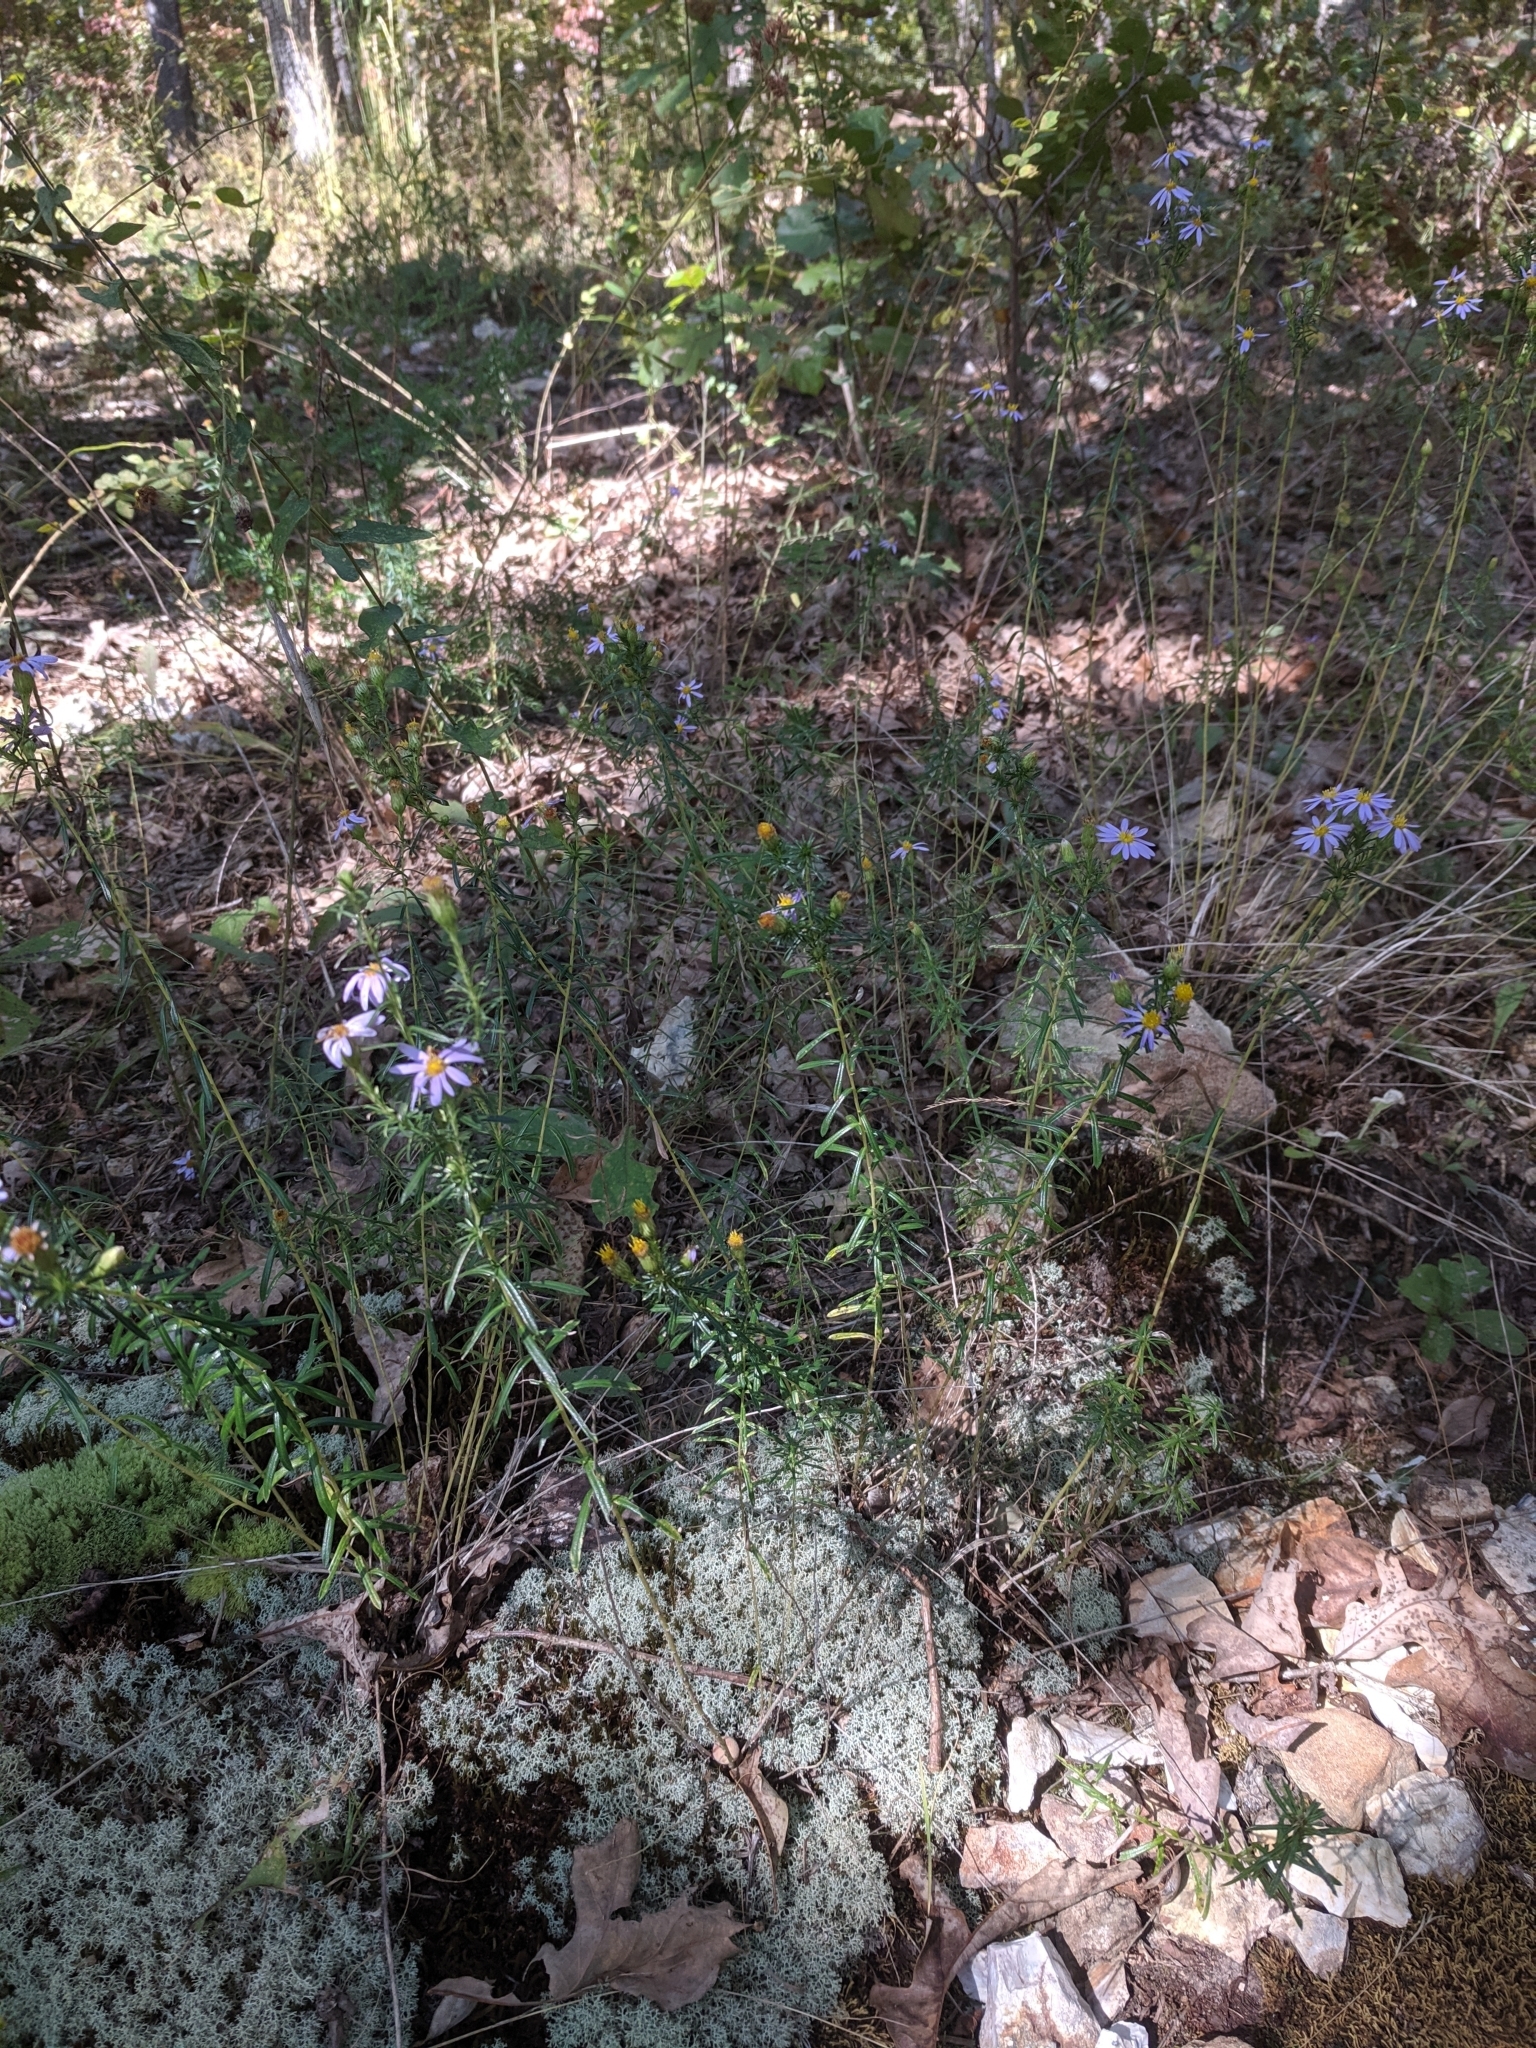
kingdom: Plantae
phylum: Tracheophyta
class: Magnoliopsida
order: Asterales
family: Asteraceae
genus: Ionactis
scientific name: Ionactis linariifolia
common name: Flax-leaf aster
